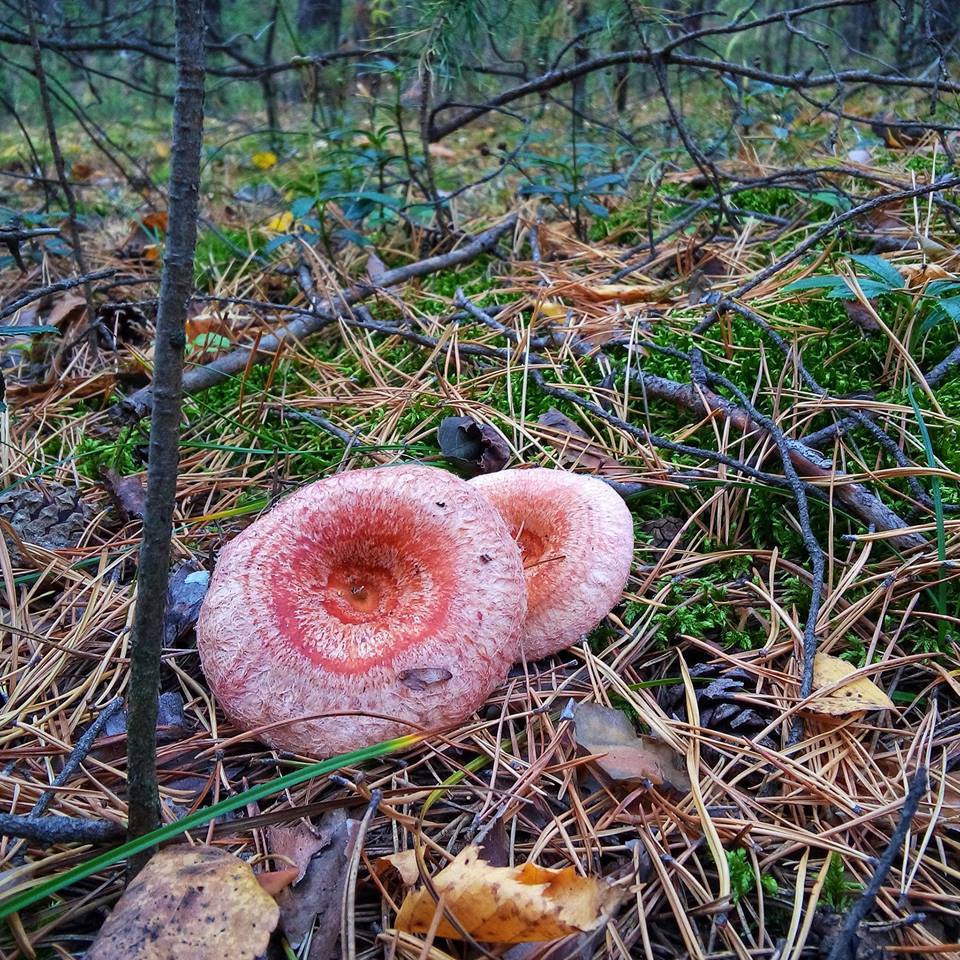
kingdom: Fungi
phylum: Basidiomycota
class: Agaricomycetes
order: Russulales
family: Russulaceae
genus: Lactarius
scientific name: Lactarius torminosus
